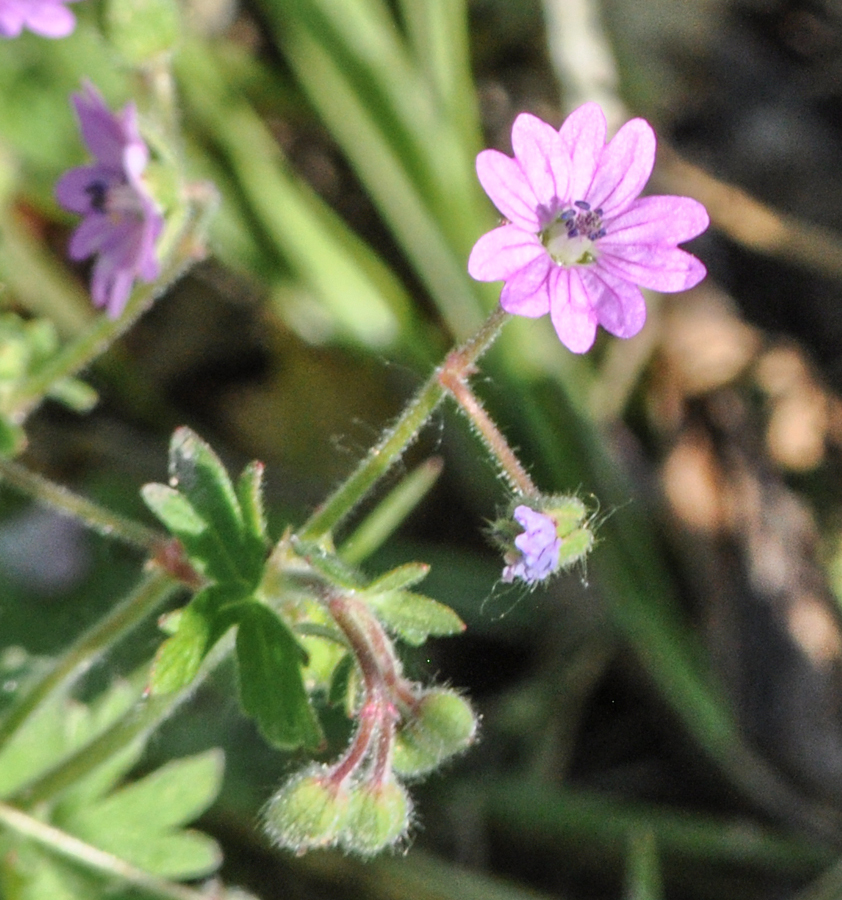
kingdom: Plantae
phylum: Tracheophyta
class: Magnoliopsida
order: Geraniales
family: Geraniaceae
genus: Geranium
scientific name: Geranium molle
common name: Dove's-foot crane's-bill
